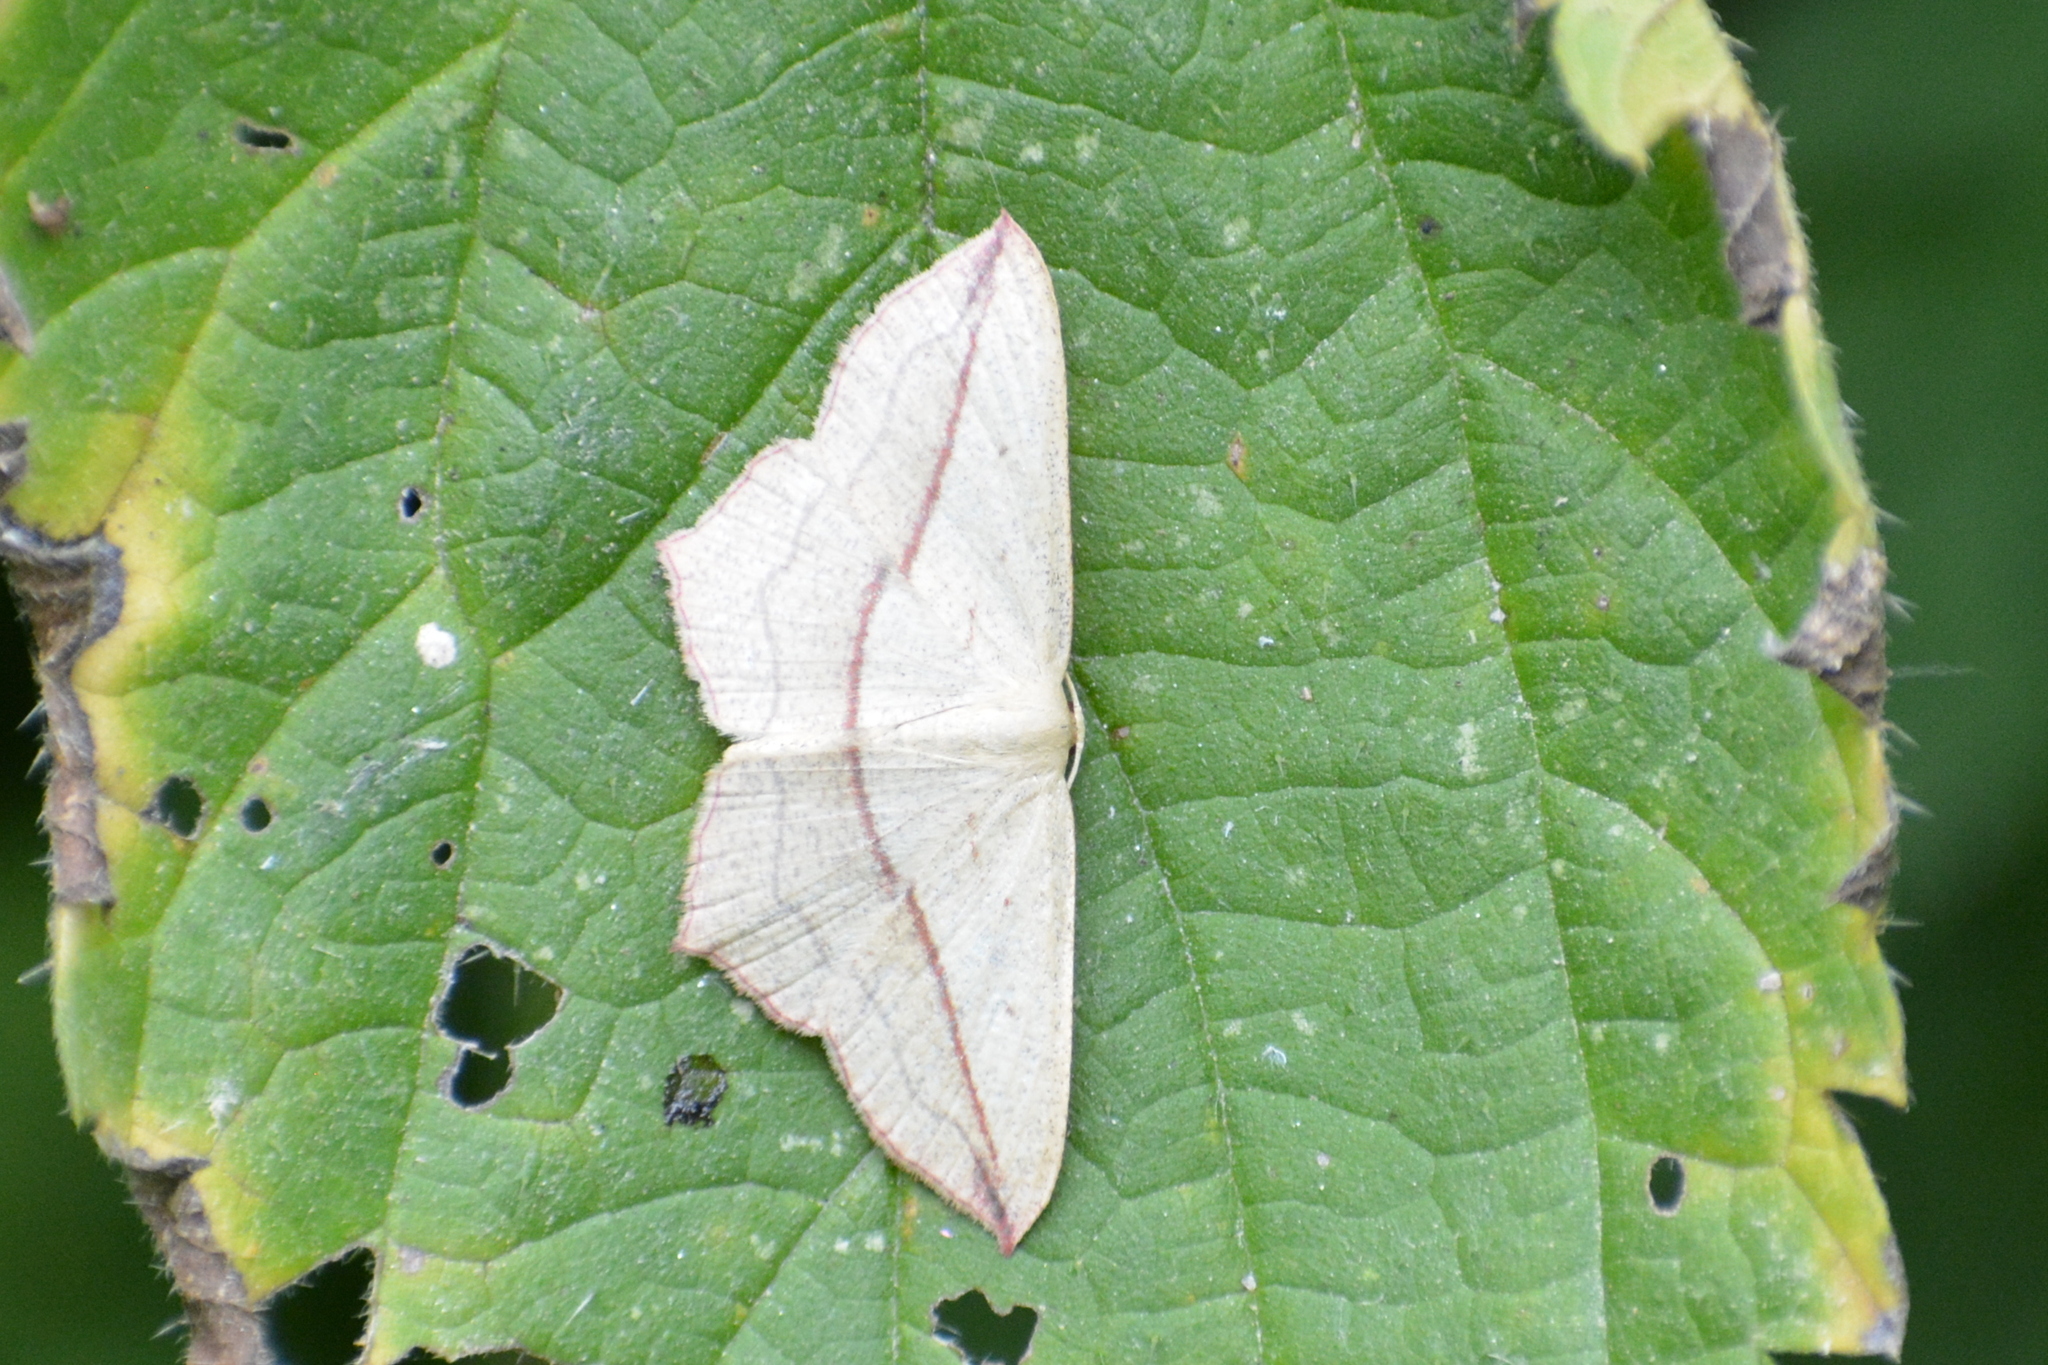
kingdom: Animalia
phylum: Arthropoda
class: Insecta
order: Lepidoptera
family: Geometridae
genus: Timandra
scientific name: Timandra comae
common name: Blood-vein
